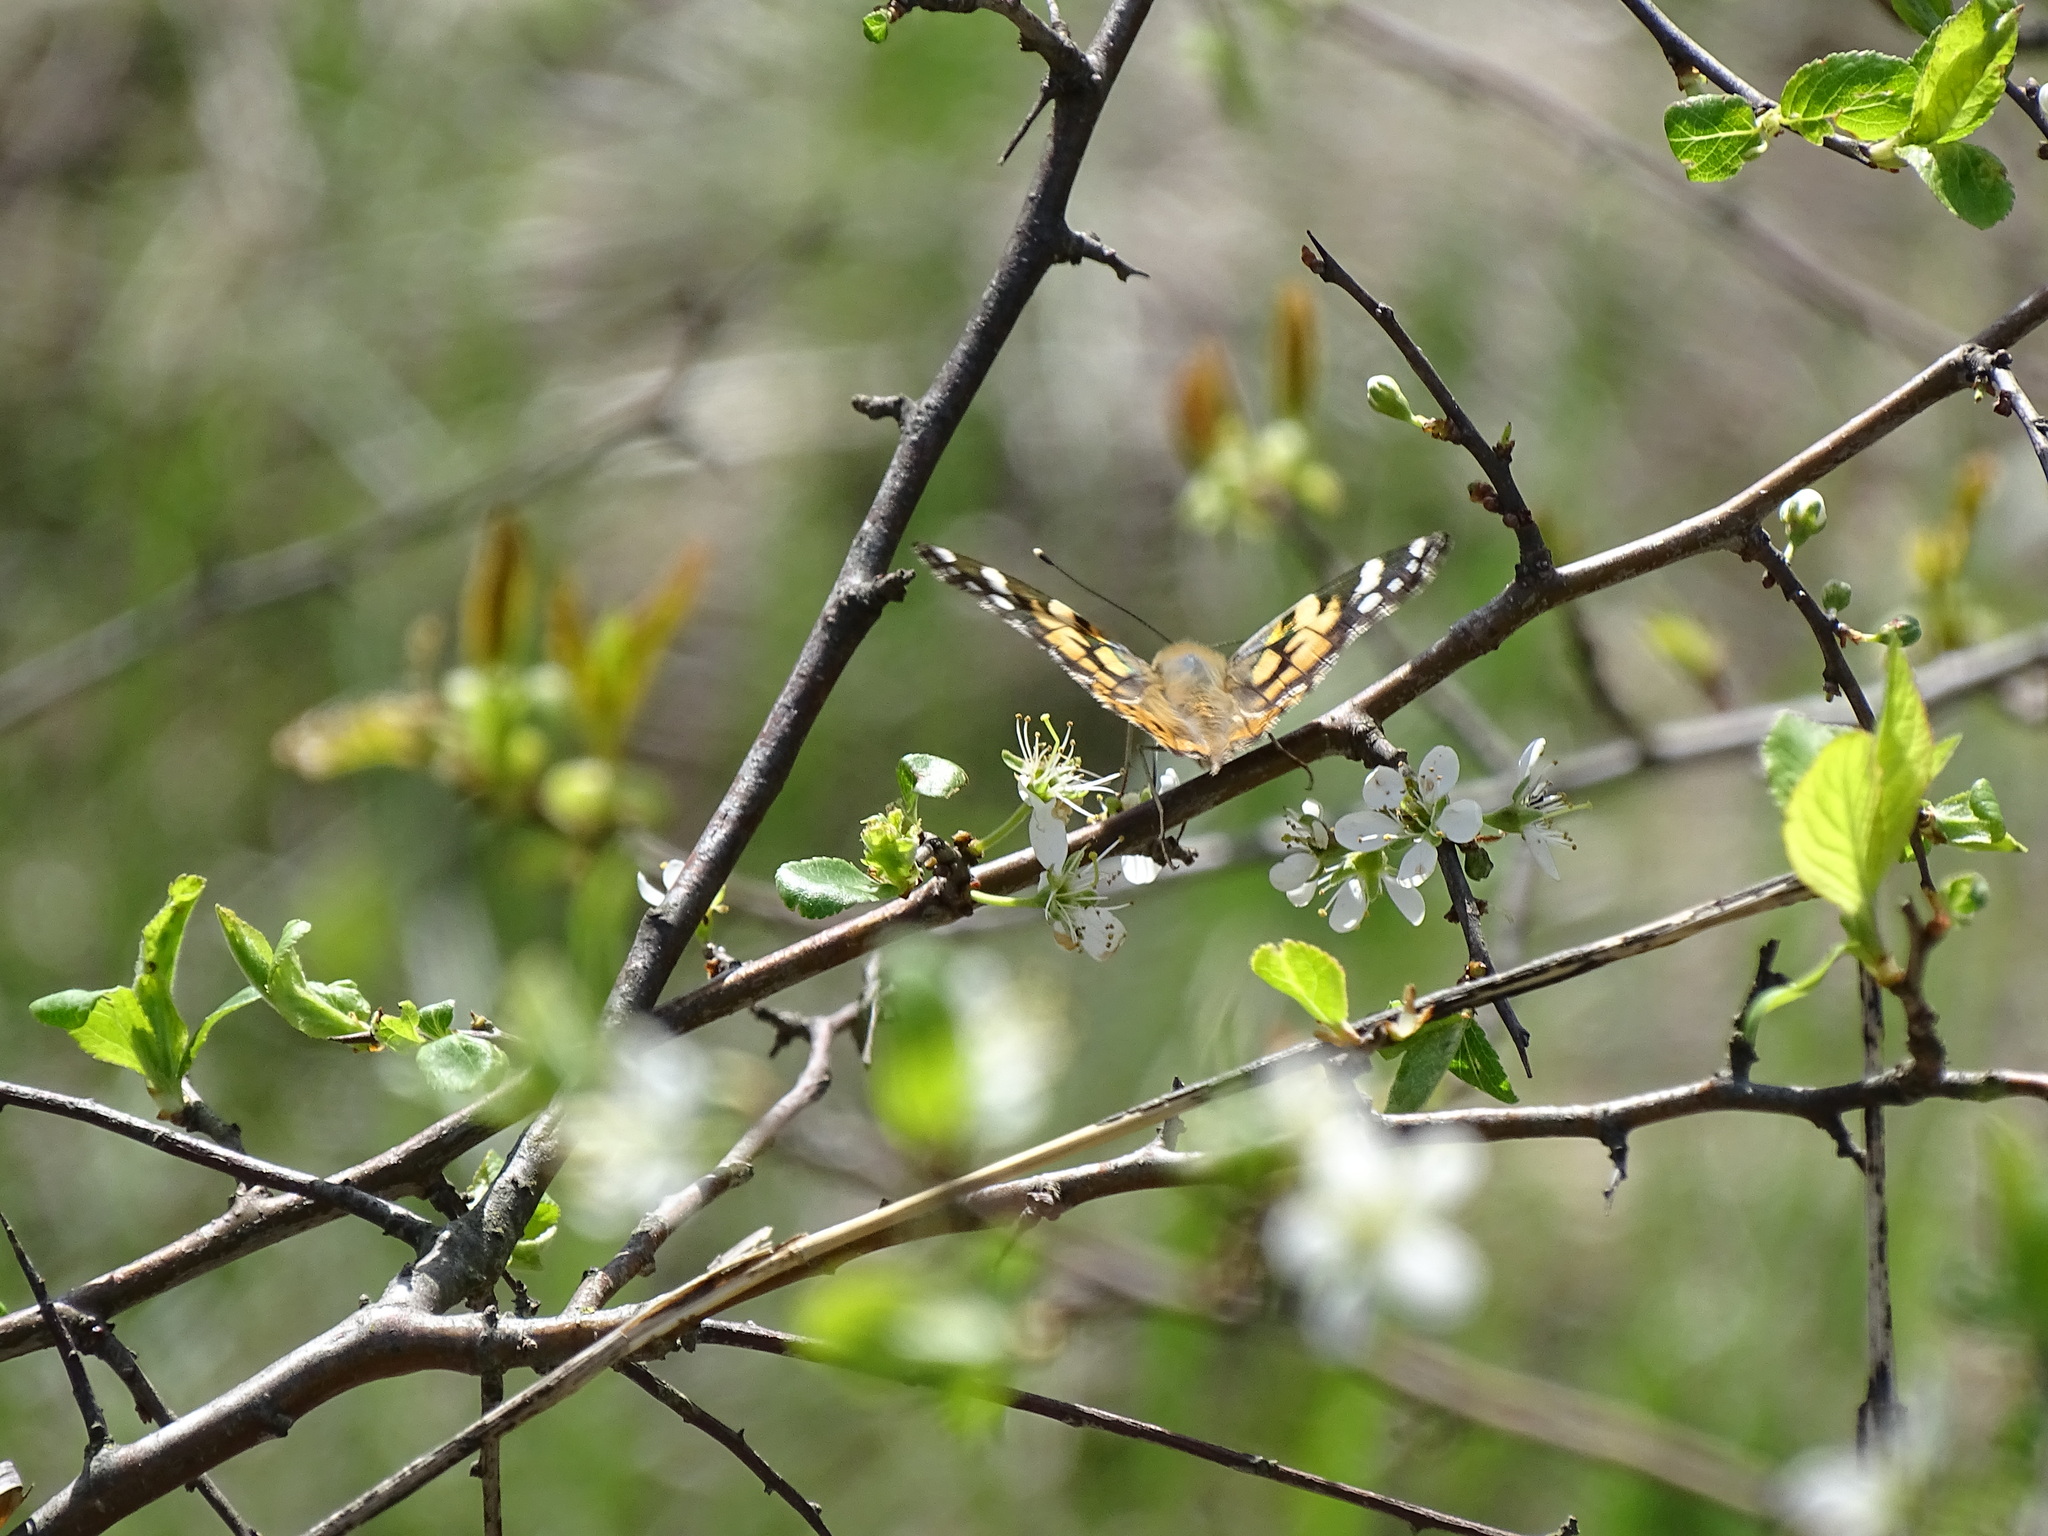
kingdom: Animalia
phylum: Arthropoda
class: Insecta
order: Lepidoptera
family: Nymphalidae
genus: Vanessa
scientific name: Vanessa cardui
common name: Painted lady
